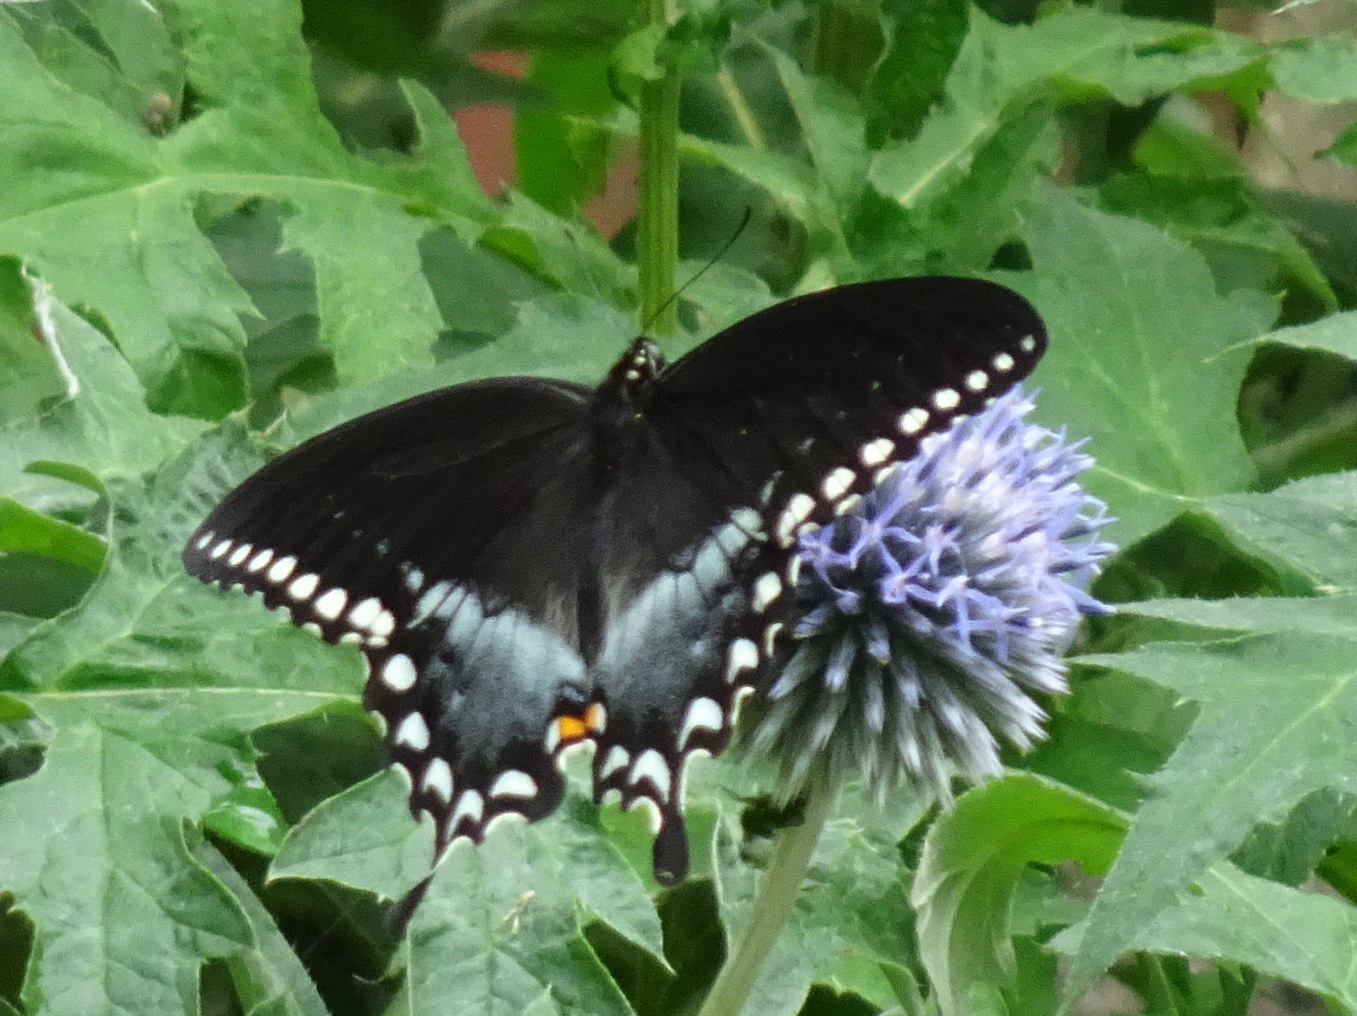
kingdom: Animalia
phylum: Arthropoda
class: Insecta
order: Lepidoptera
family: Papilionidae
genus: Papilio
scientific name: Papilio troilus
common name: Spicebush swallowtail
